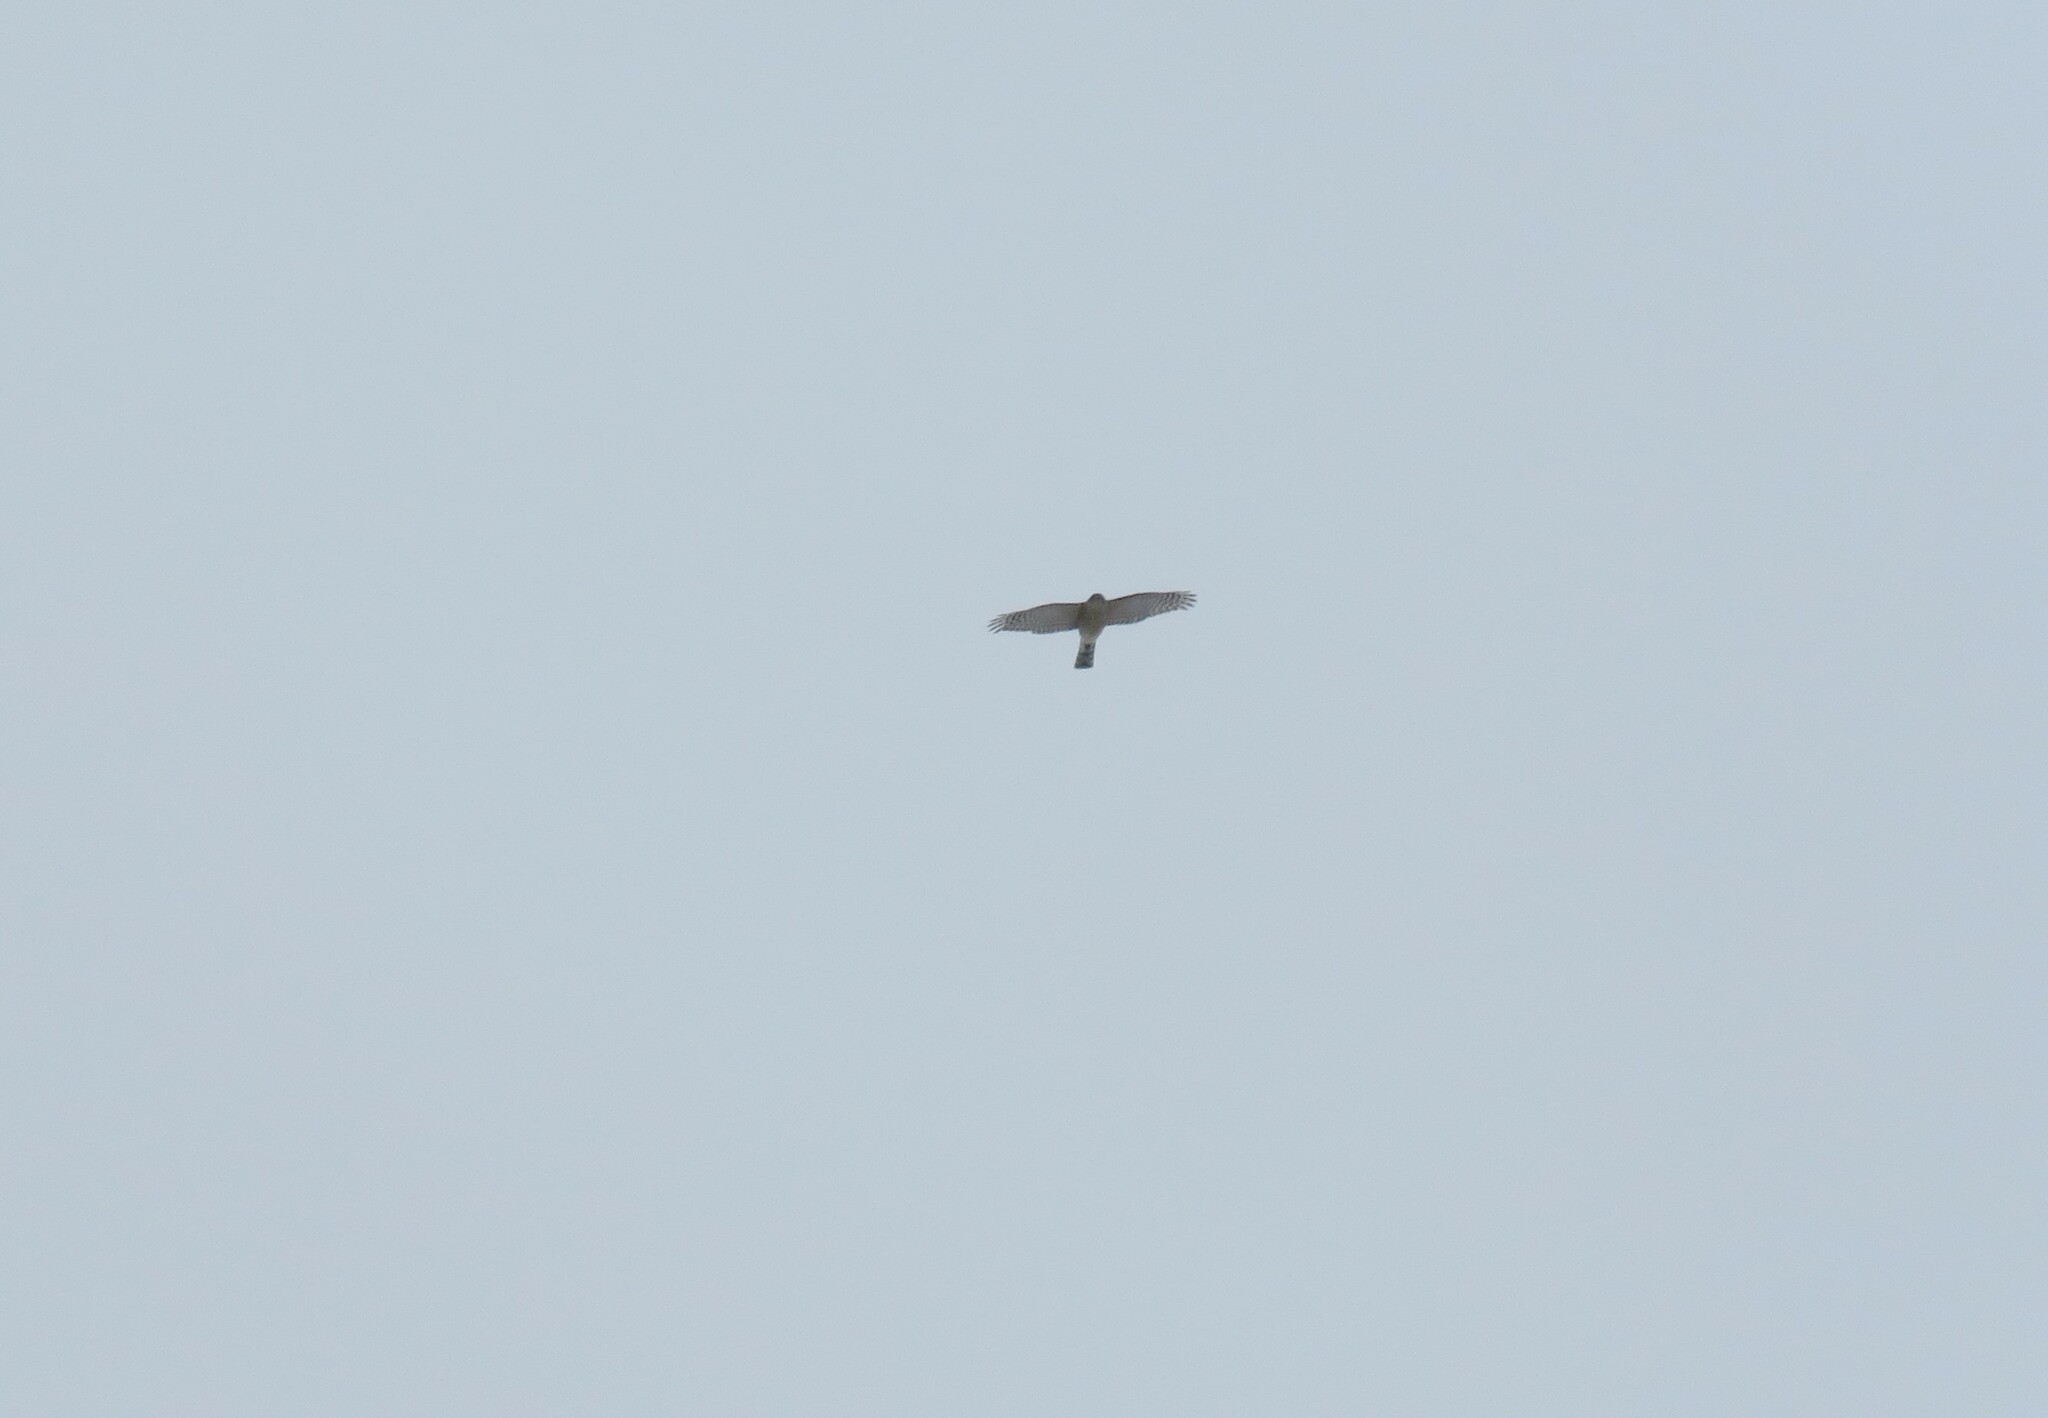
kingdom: Animalia
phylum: Chordata
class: Aves
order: Accipitriformes
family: Accipitridae
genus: Accipiter
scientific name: Accipiter striatus
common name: Sharp-shinned hawk
